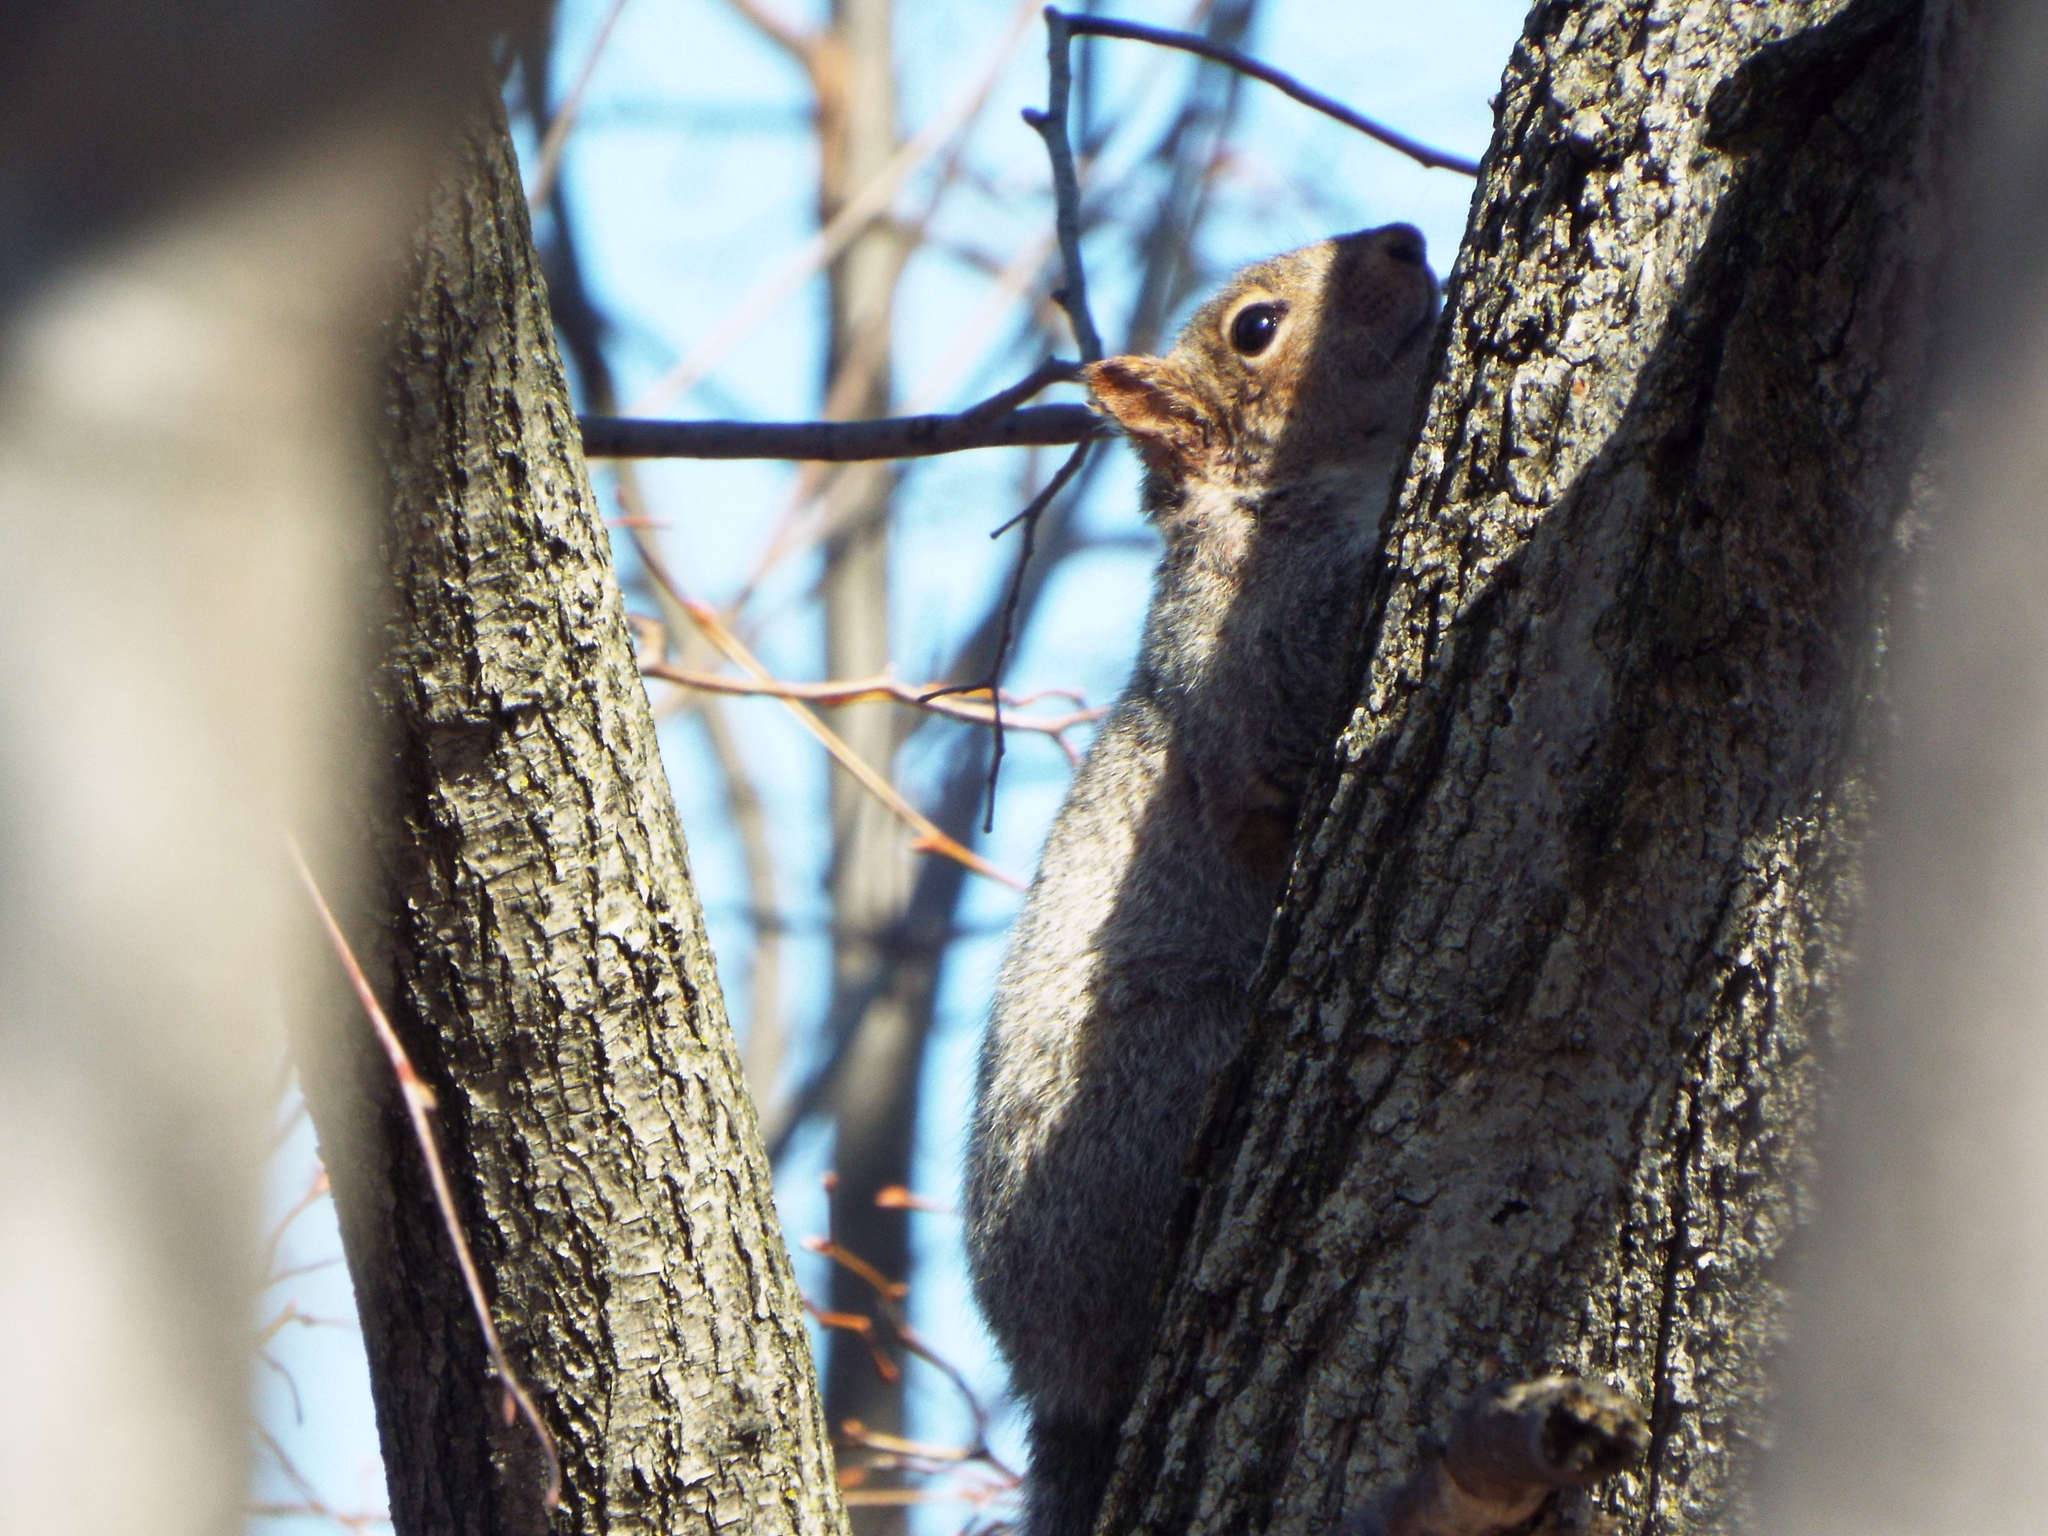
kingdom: Animalia
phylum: Chordata
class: Mammalia
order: Rodentia
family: Sciuridae
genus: Sciurus
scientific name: Sciurus carolinensis
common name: Eastern gray squirrel
